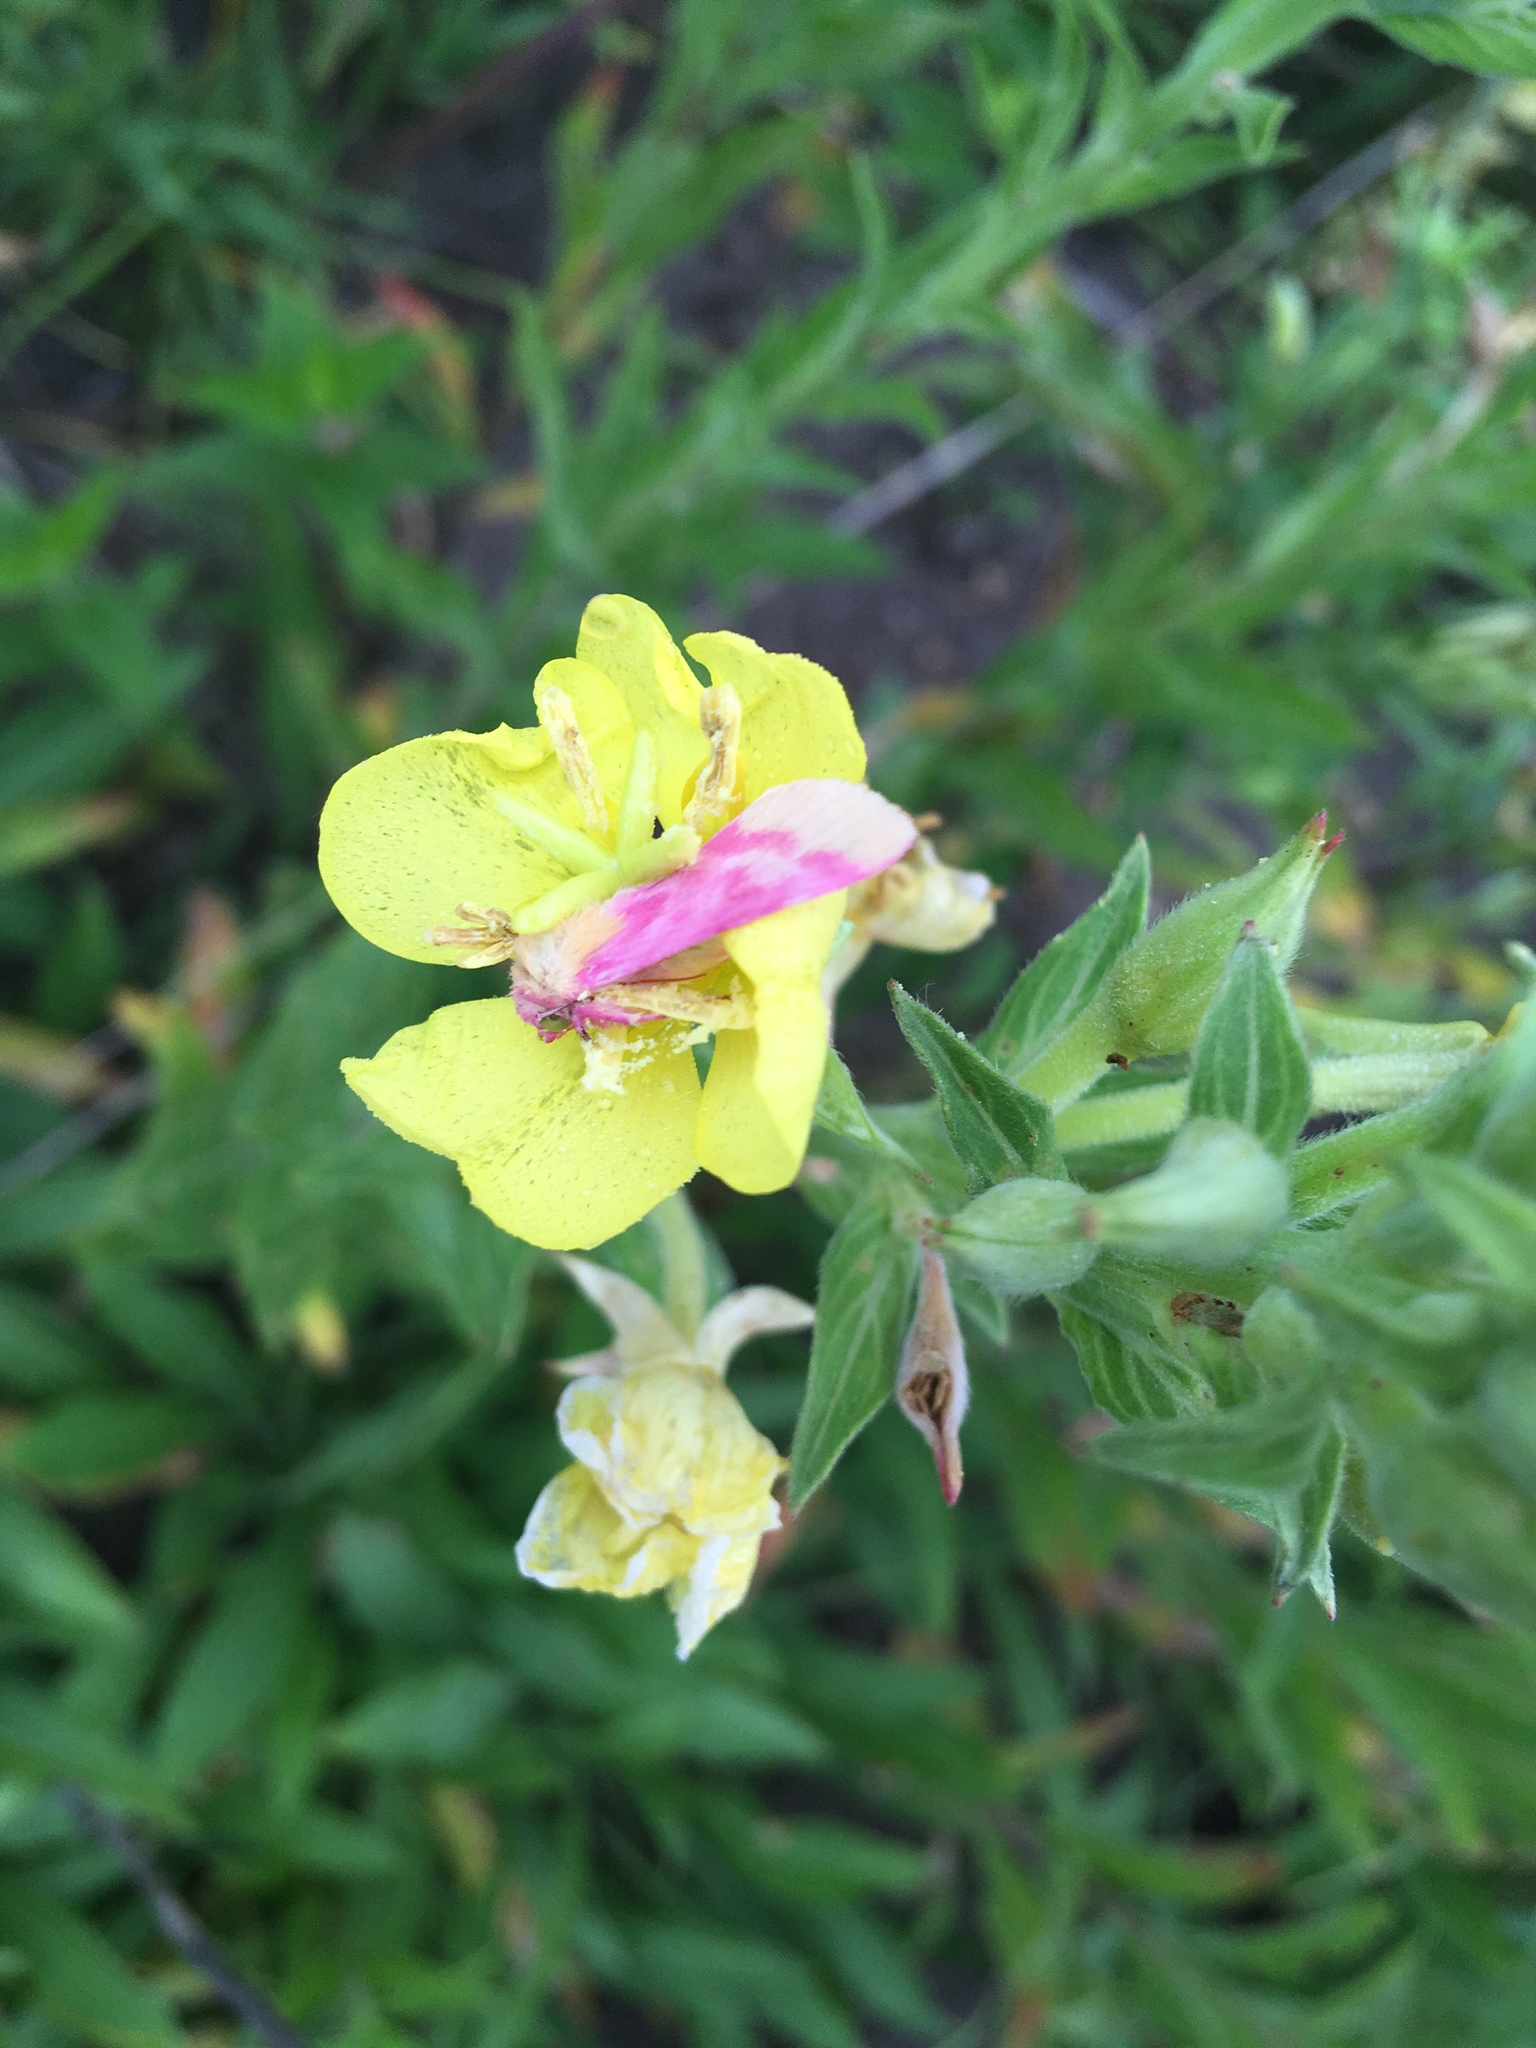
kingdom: Animalia
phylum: Arthropoda
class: Insecta
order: Lepidoptera
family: Noctuidae
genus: Schinia
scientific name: Schinia florida
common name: Primrose moth
